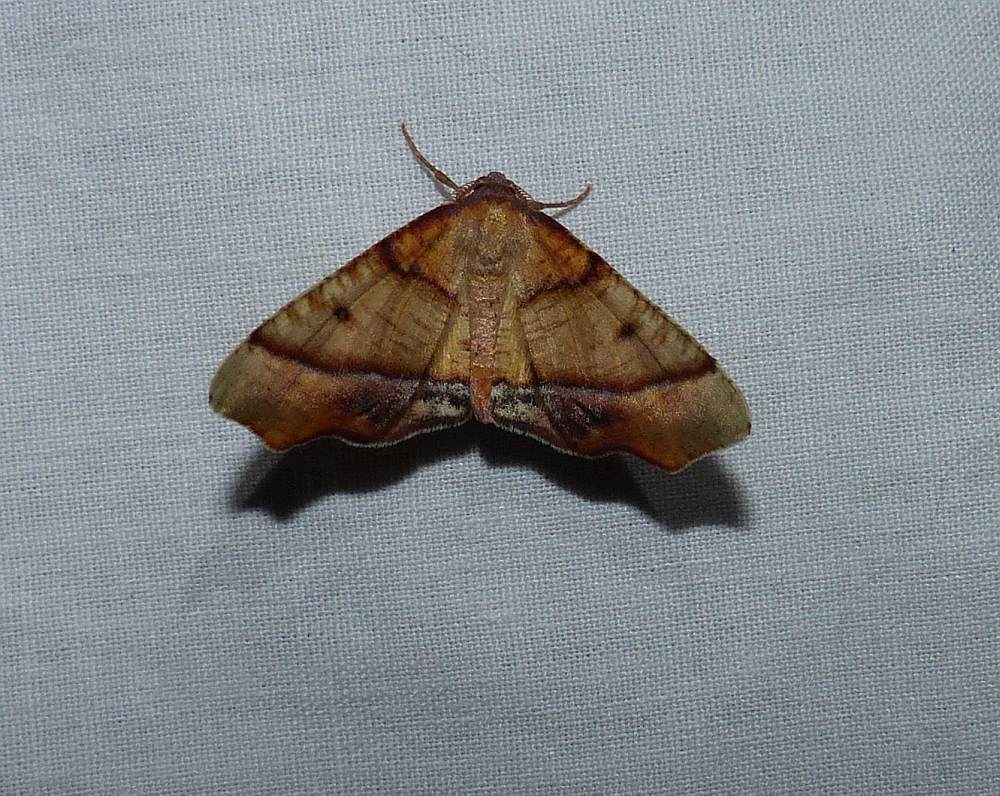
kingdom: Animalia
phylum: Arthropoda
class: Insecta
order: Lepidoptera
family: Geometridae
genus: Plagodis
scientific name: Plagodis phlogosaria
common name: Straight-lined plagodis
